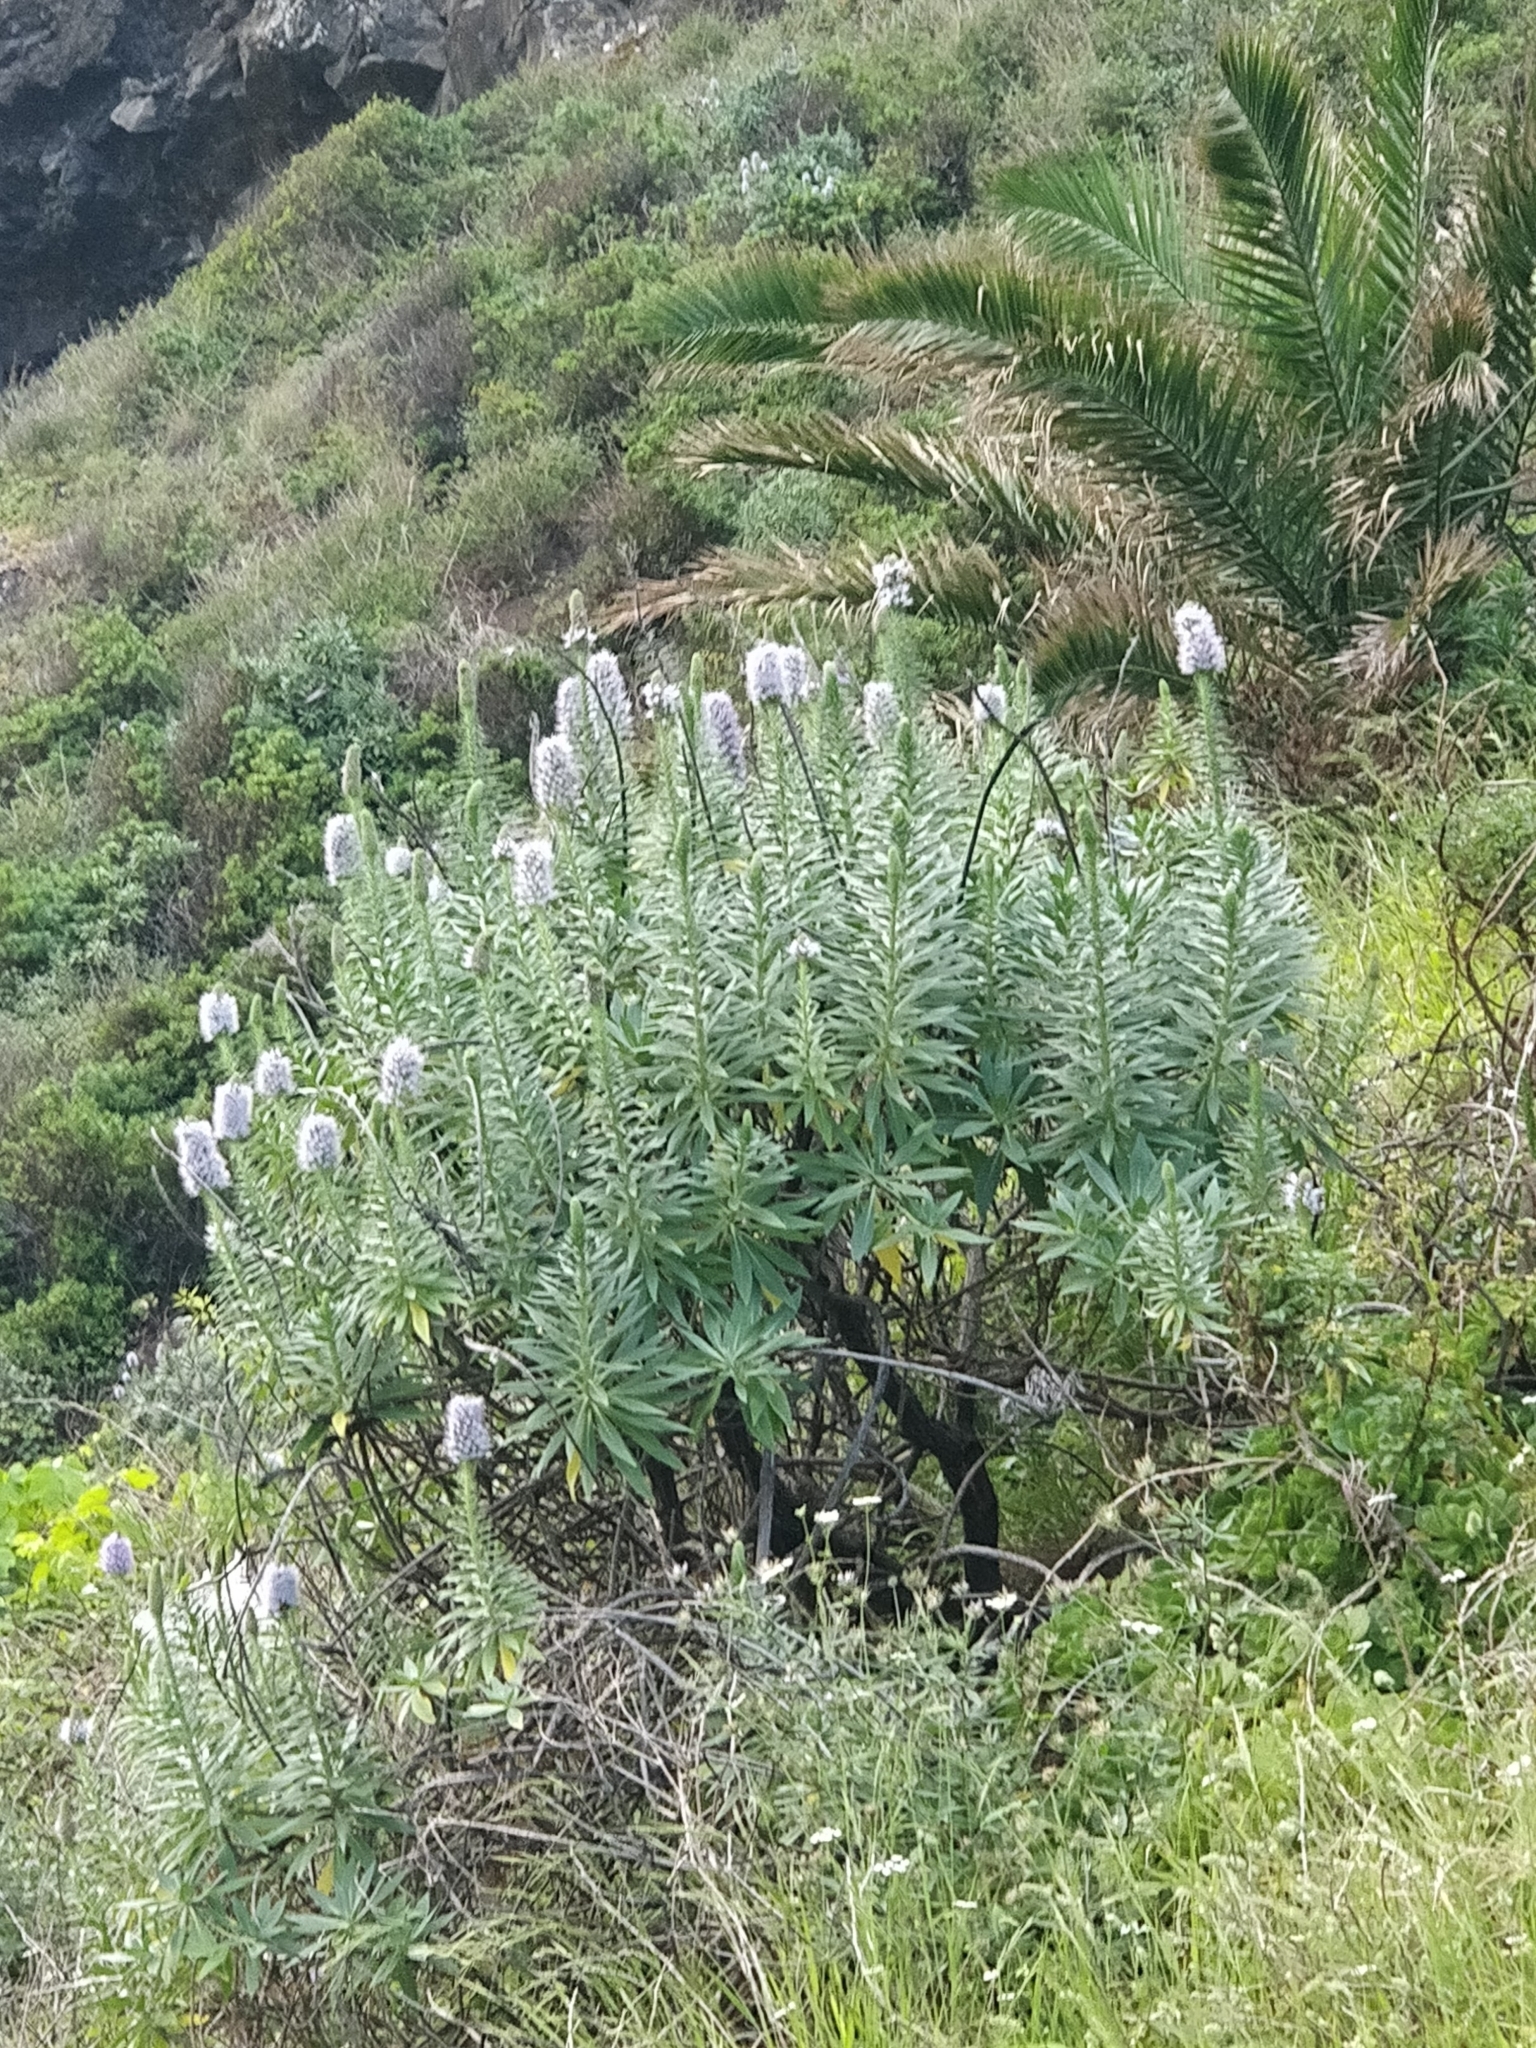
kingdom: Plantae
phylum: Tracheophyta
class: Magnoliopsida
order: Boraginales
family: Boraginaceae
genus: Echium
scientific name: Echium nervosum
